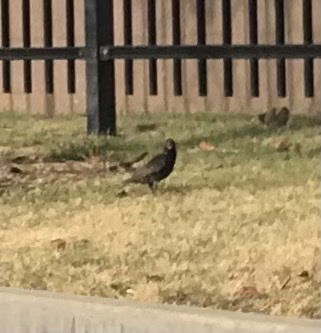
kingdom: Animalia
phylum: Chordata
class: Aves
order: Passeriformes
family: Sturnidae
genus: Sturnus
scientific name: Sturnus vulgaris
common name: Common starling
